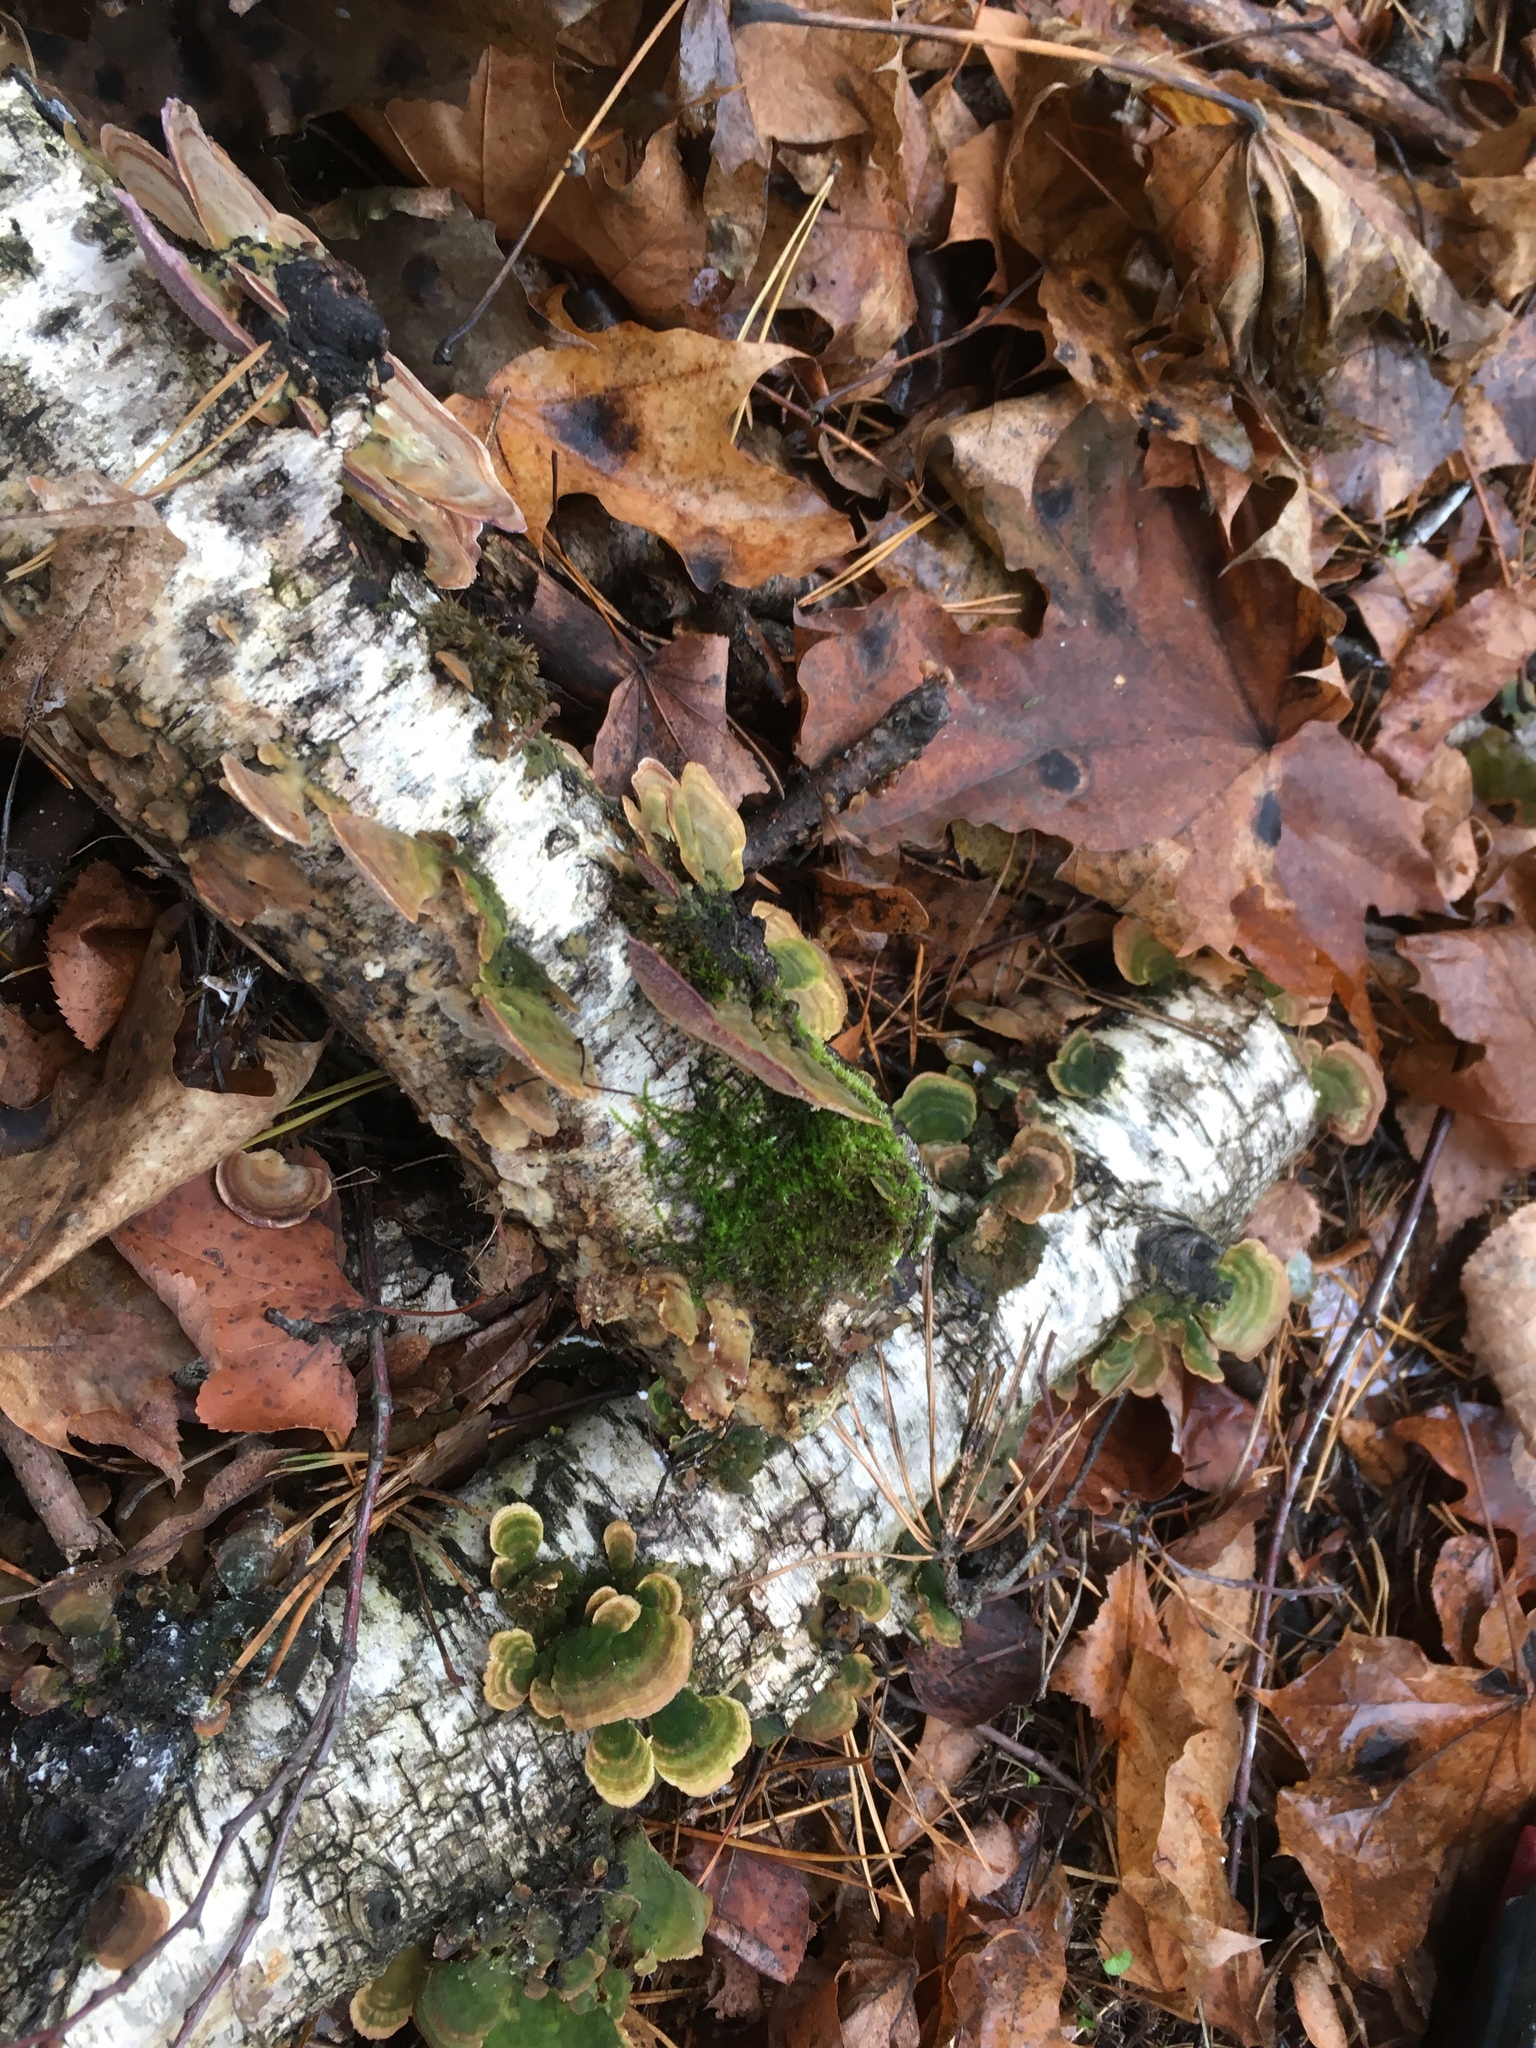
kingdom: Fungi
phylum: Basidiomycota
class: Agaricomycetes
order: Hymenochaetales
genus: Trichaptum
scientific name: Trichaptum biforme
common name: Violet-toothed polypore
